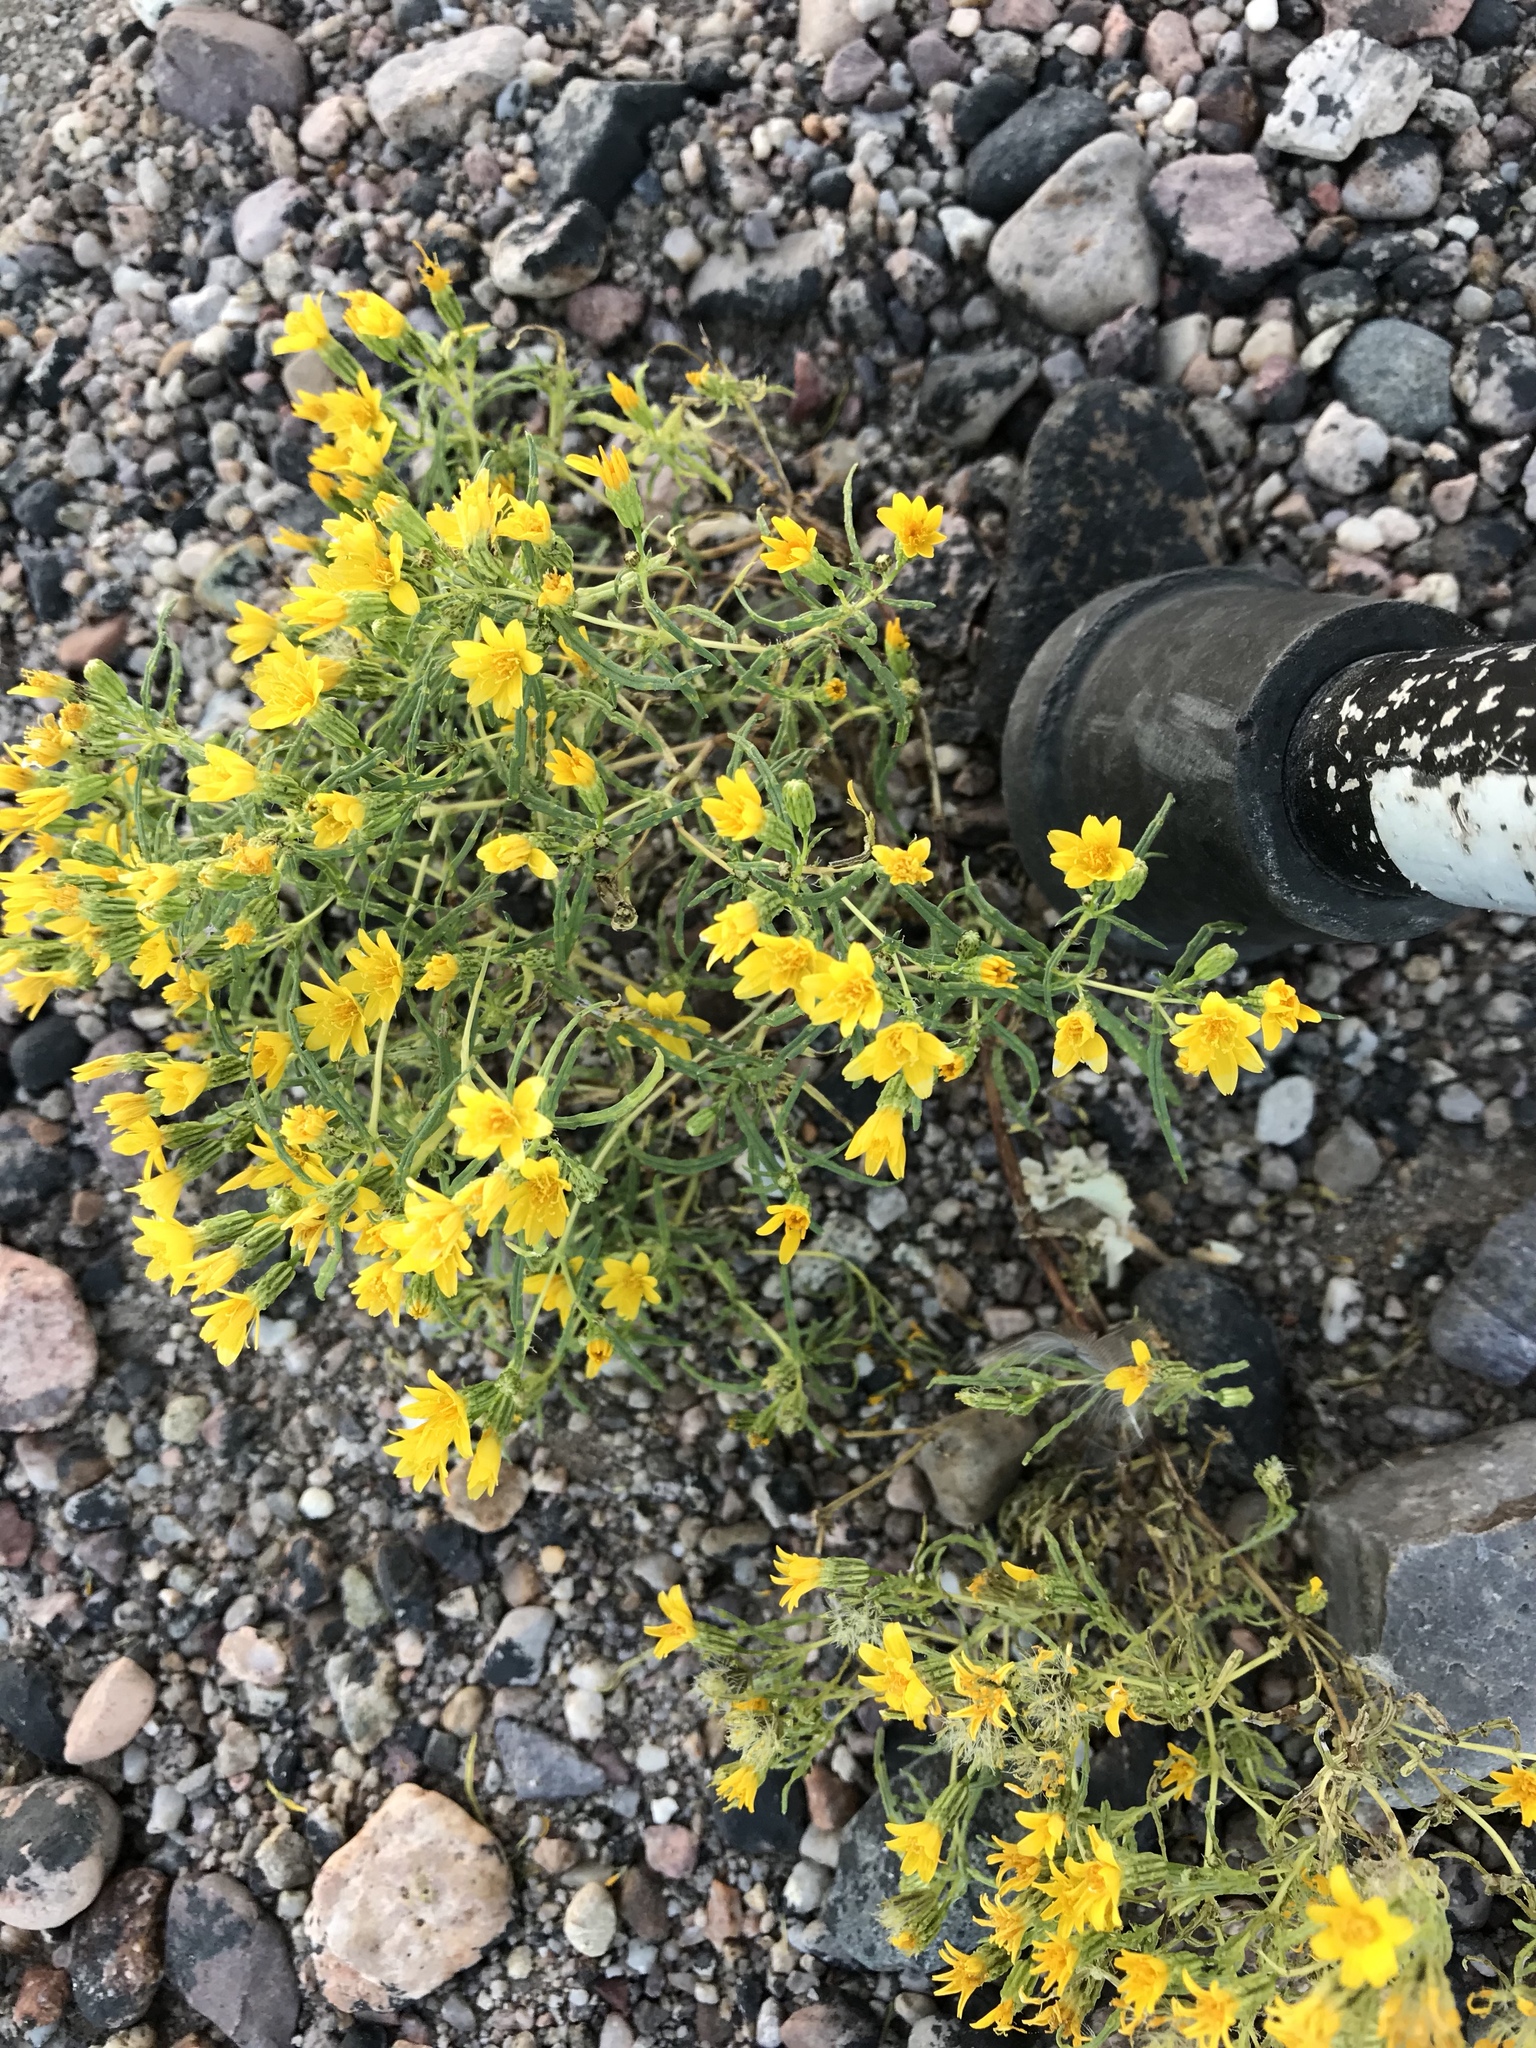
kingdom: Plantae
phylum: Tracheophyta
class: Magnoliopsida
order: Asterales
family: Asteraceae
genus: Pectis
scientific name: Pectis papposa
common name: Many-bristle chinchweed
